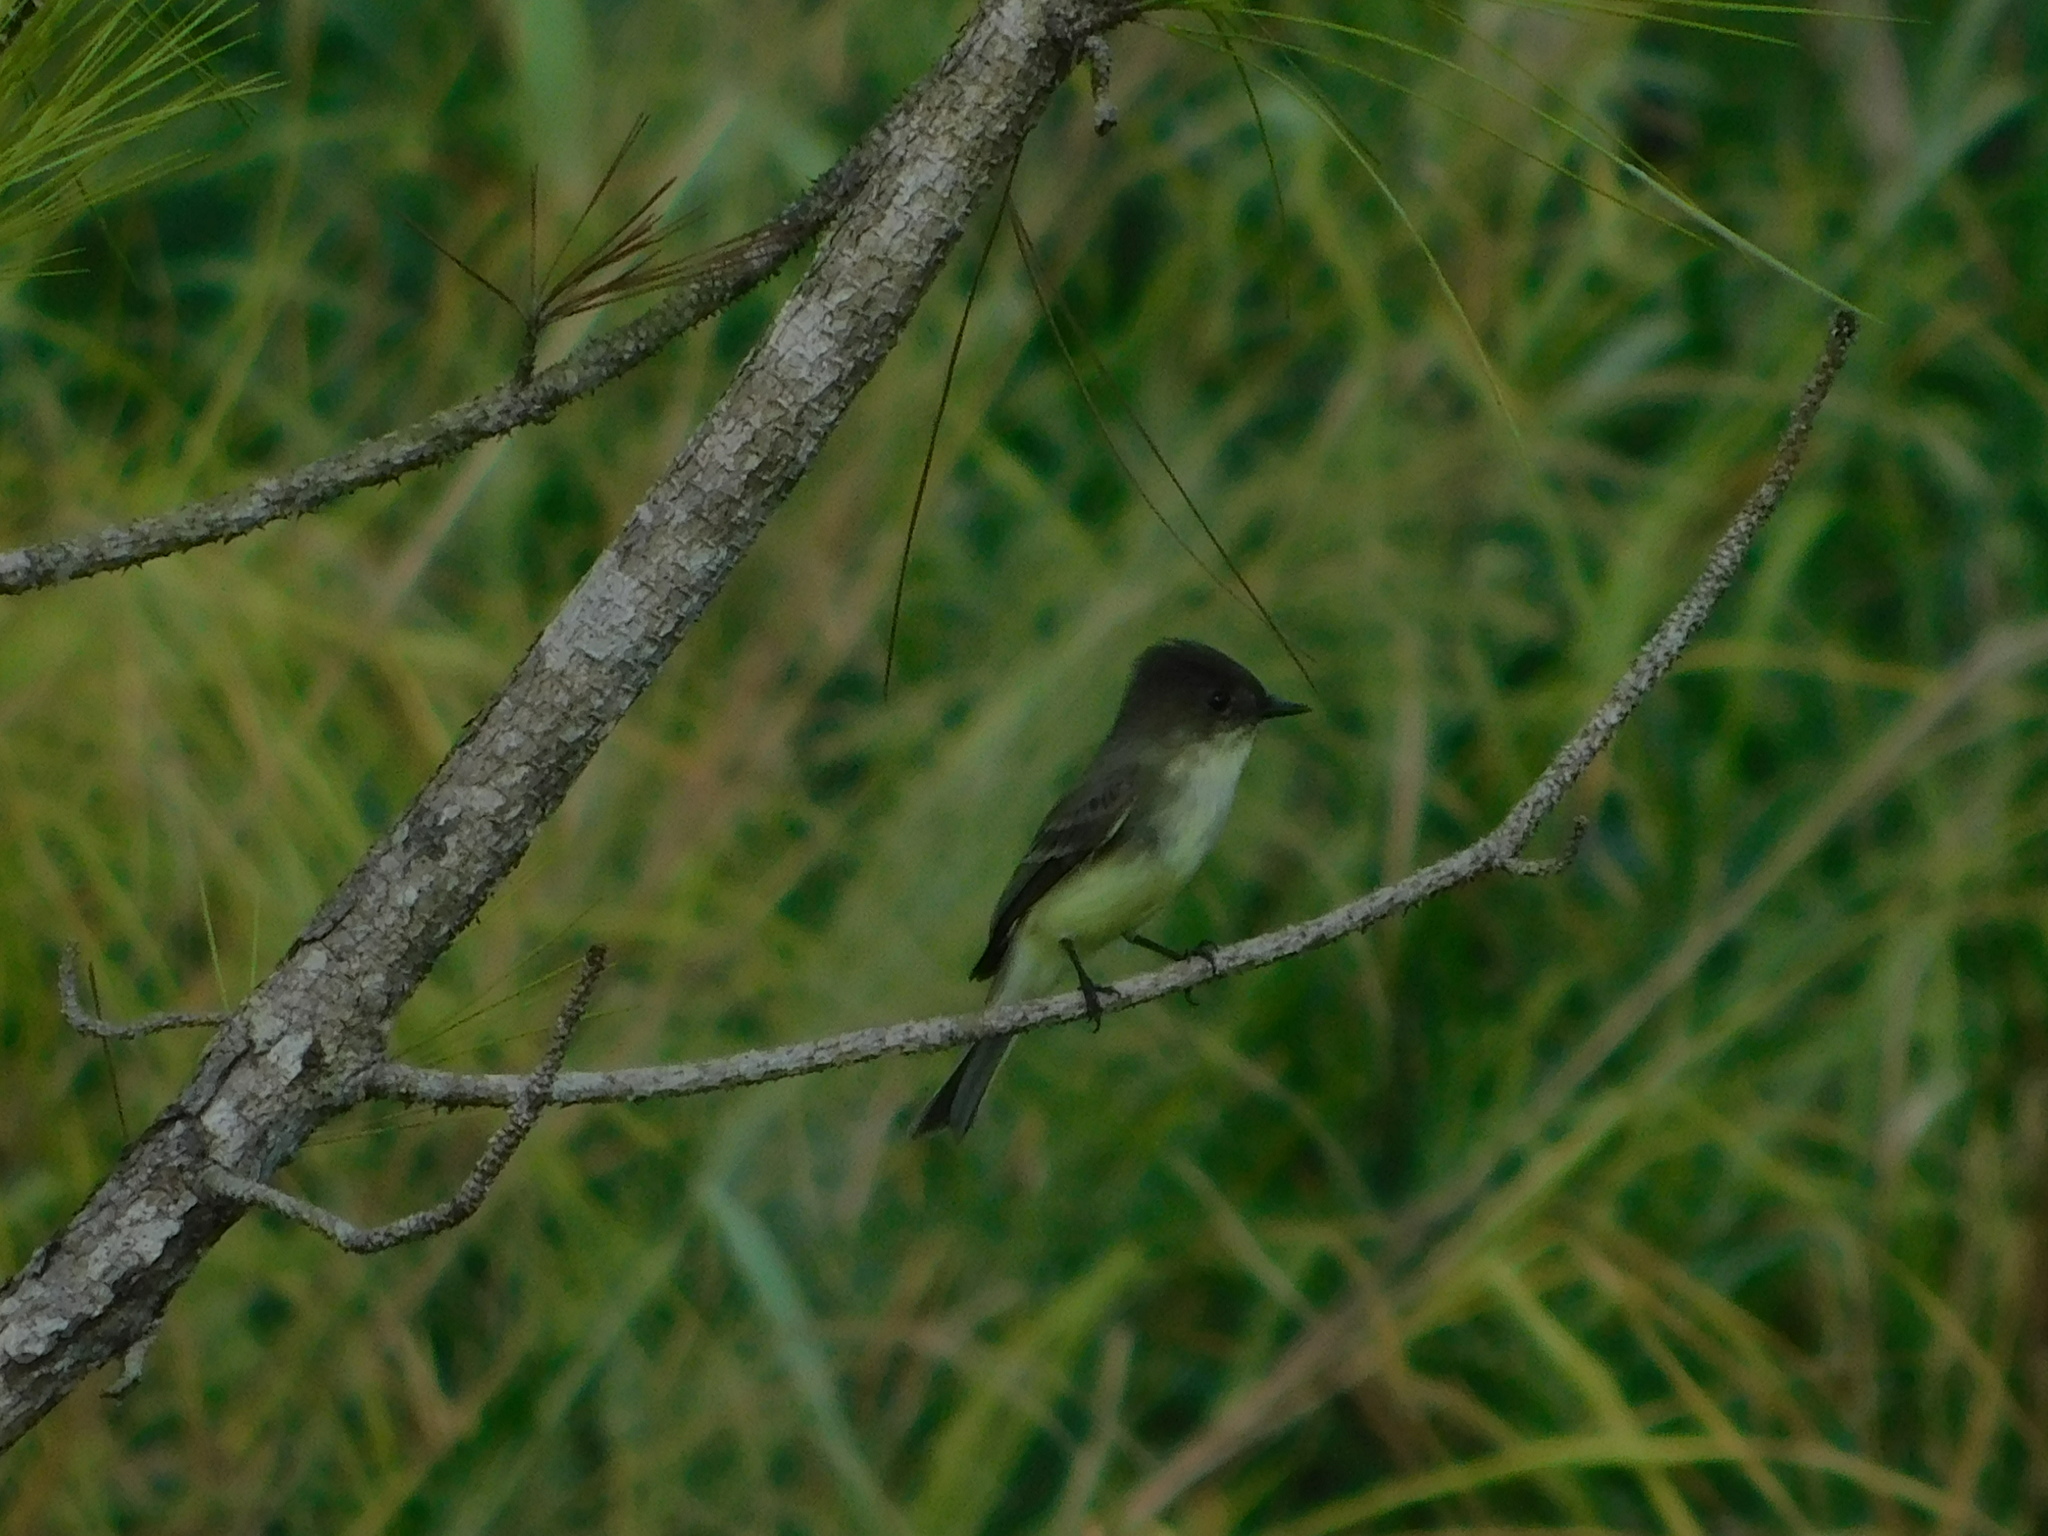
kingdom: Animalia
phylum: Chordata
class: Aves
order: Passeriformes
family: Tyrannidae
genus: Sayornis
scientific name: Sayornis phoebe
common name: Eastern phoebe
